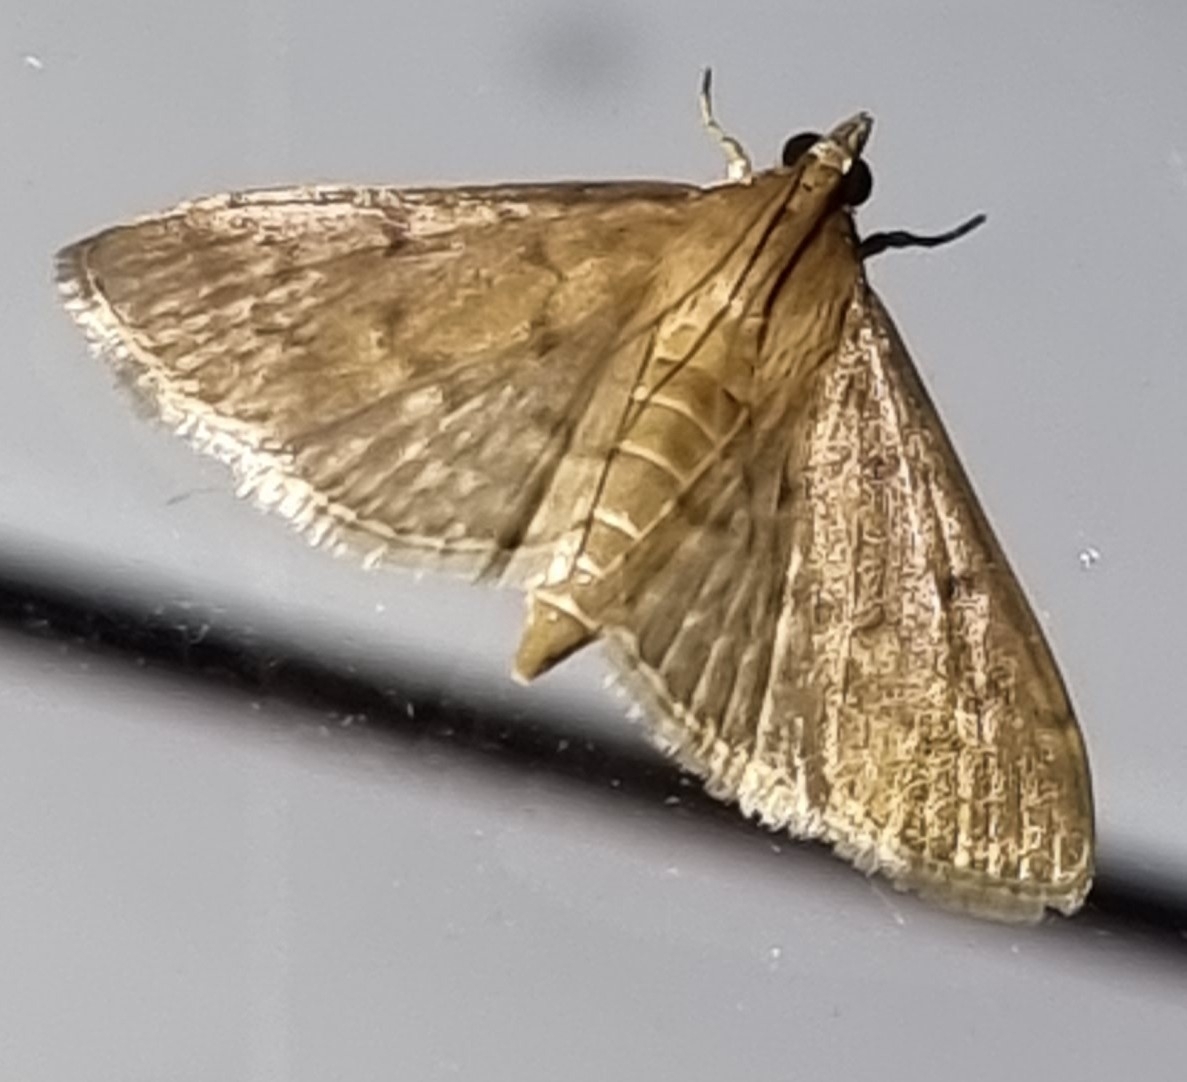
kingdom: Animalia
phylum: Arthropoda
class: Insecta
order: Lepidoptera
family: Crambidae
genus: Herpetogramma
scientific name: Herpetogramma licarsisalis
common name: Grass webworm
